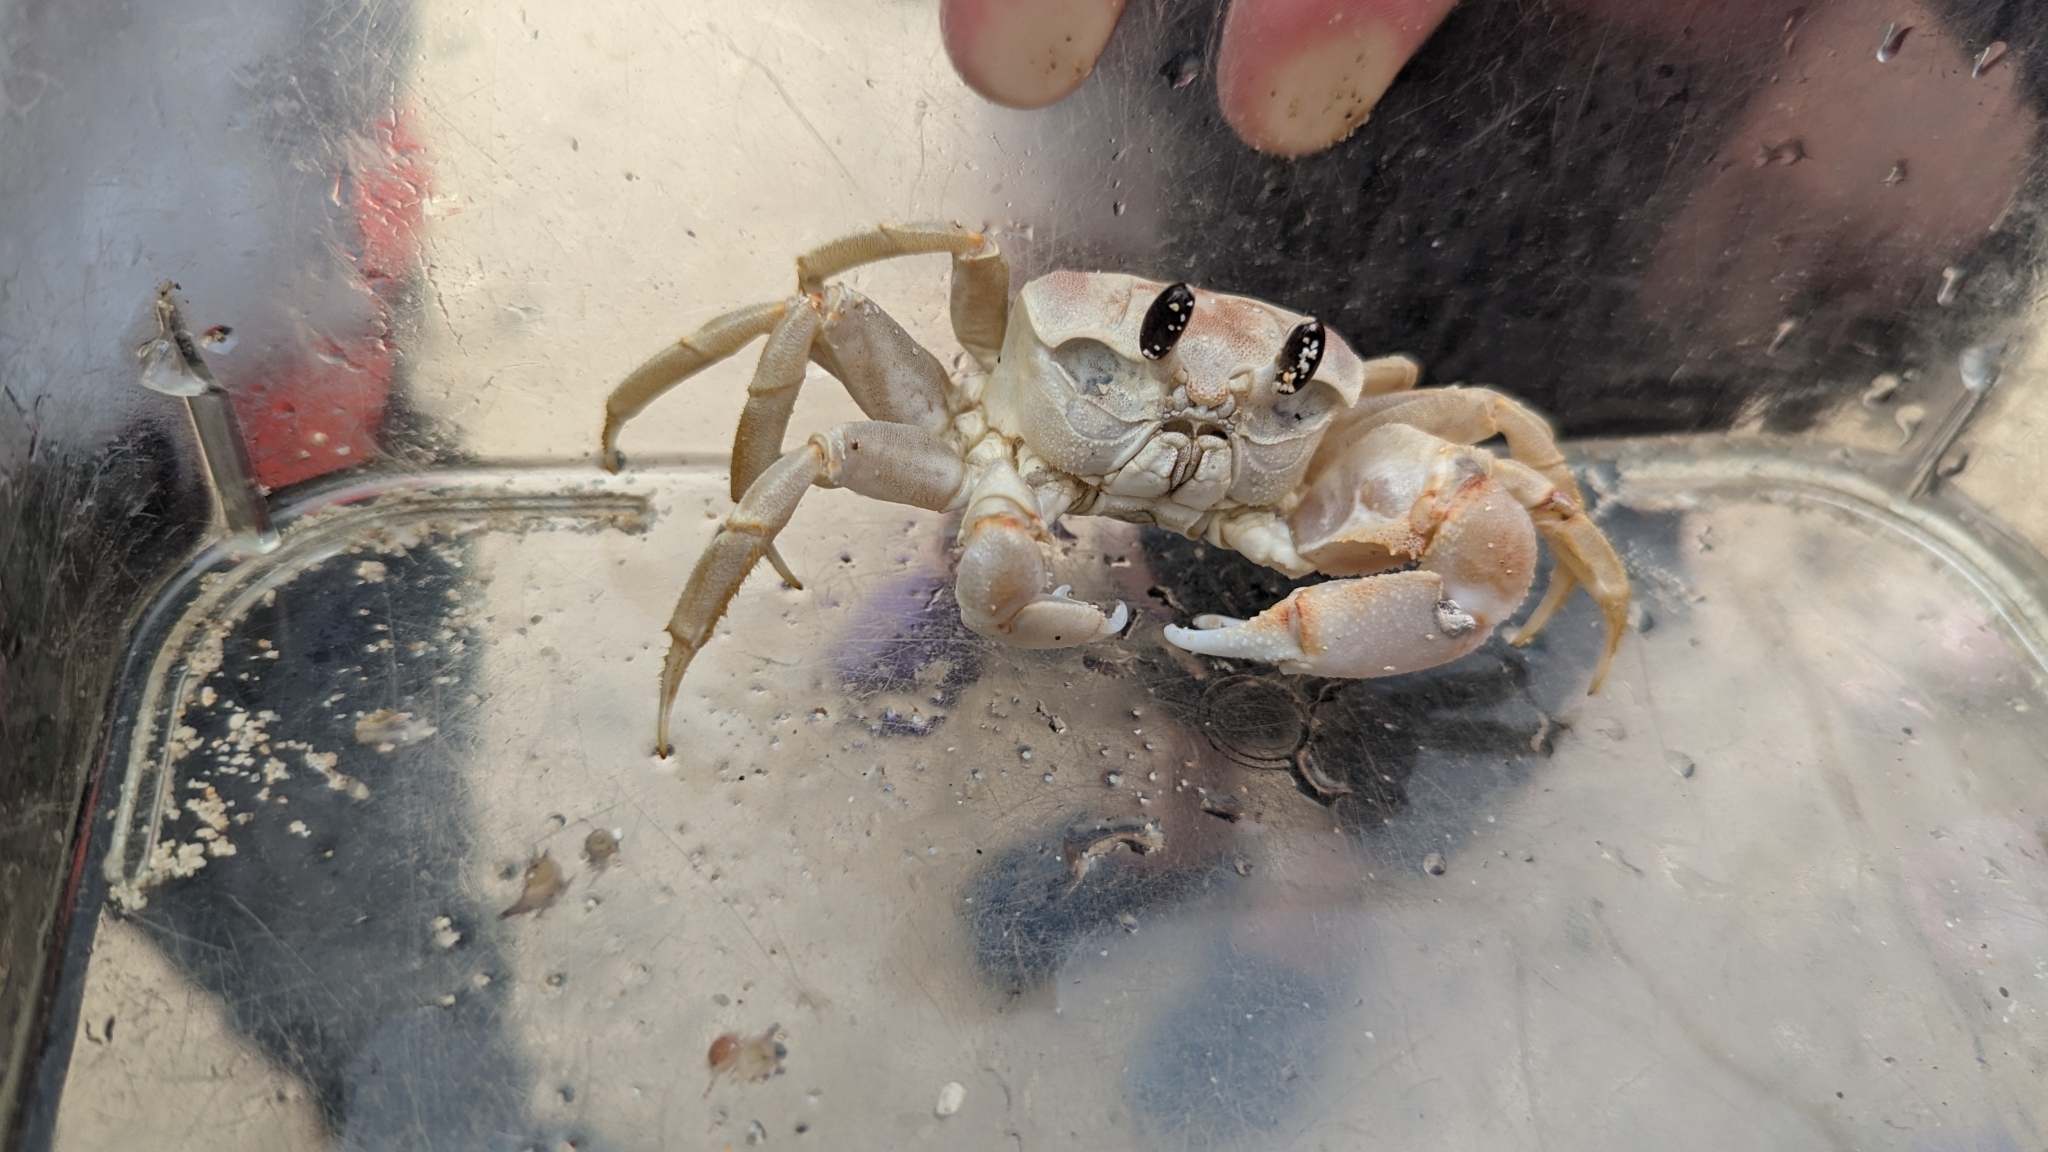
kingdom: Animalia
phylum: Arthropoda
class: Malacostraca
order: Decapoda
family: Ocypodidae
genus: Ocypode
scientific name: Ocypode cordimana
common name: Smooth-eyed ghost crab
